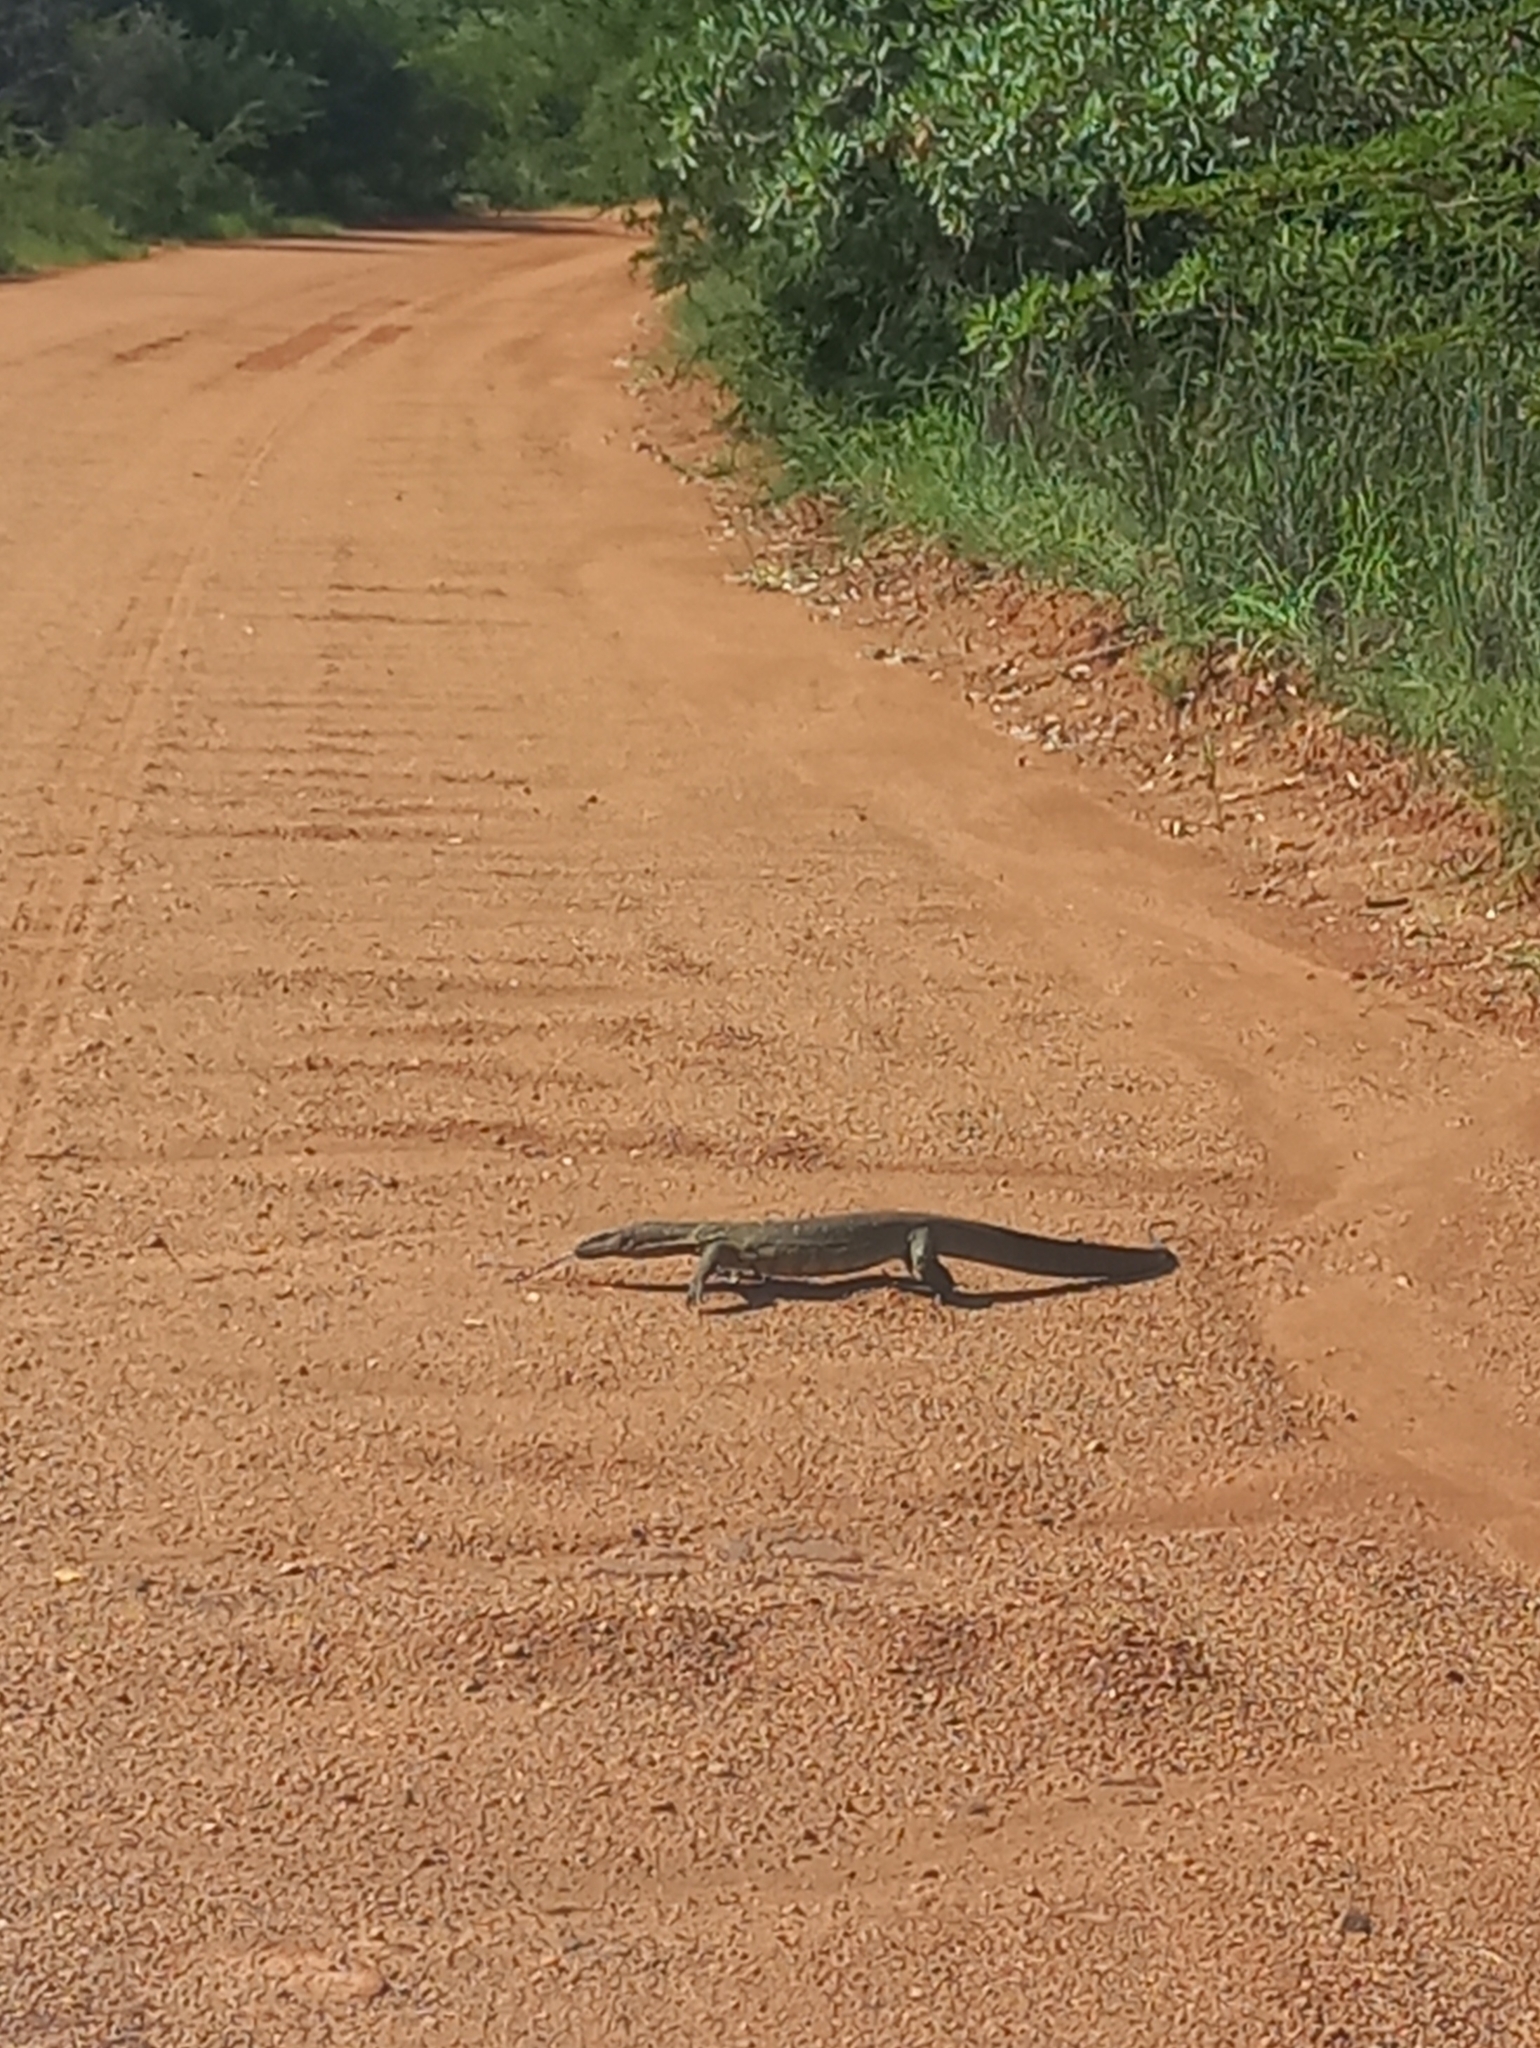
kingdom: Animalia
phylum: Chordata
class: Squamata
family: Varanidae
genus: Varanus
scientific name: Varanus niloticus
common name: Nile monitor
